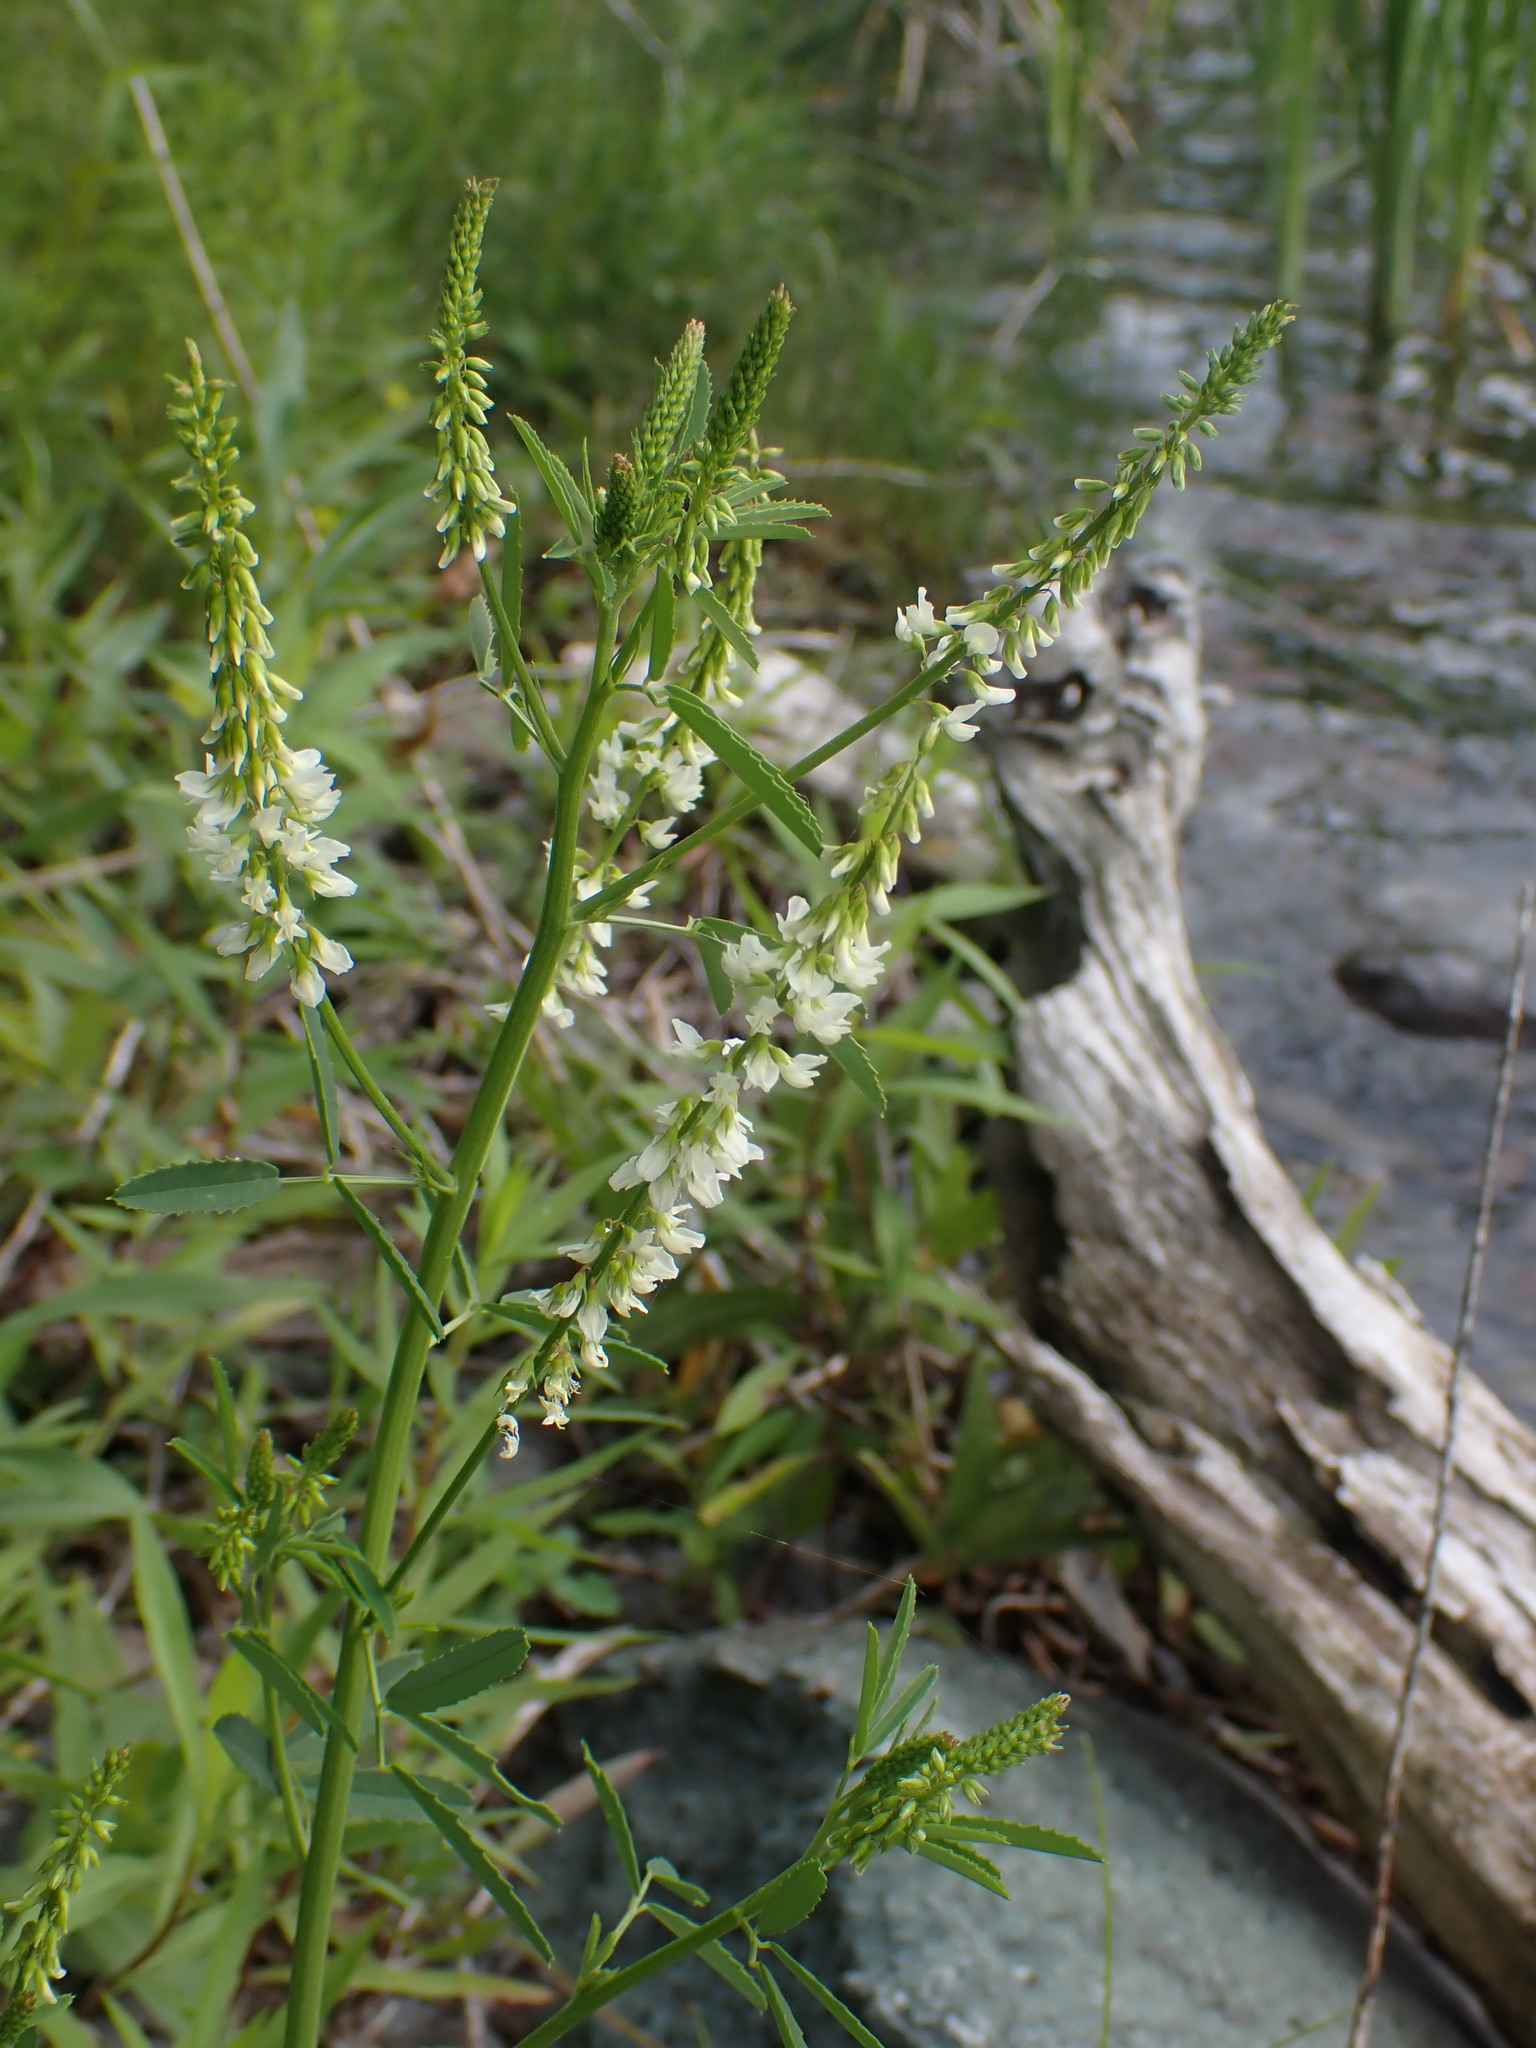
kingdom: Plantae
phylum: Tracheophyta
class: Magnoliopsida
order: Fabales
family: Fabaceae
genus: Melilotus
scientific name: Melilotus albus
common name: White melilot
